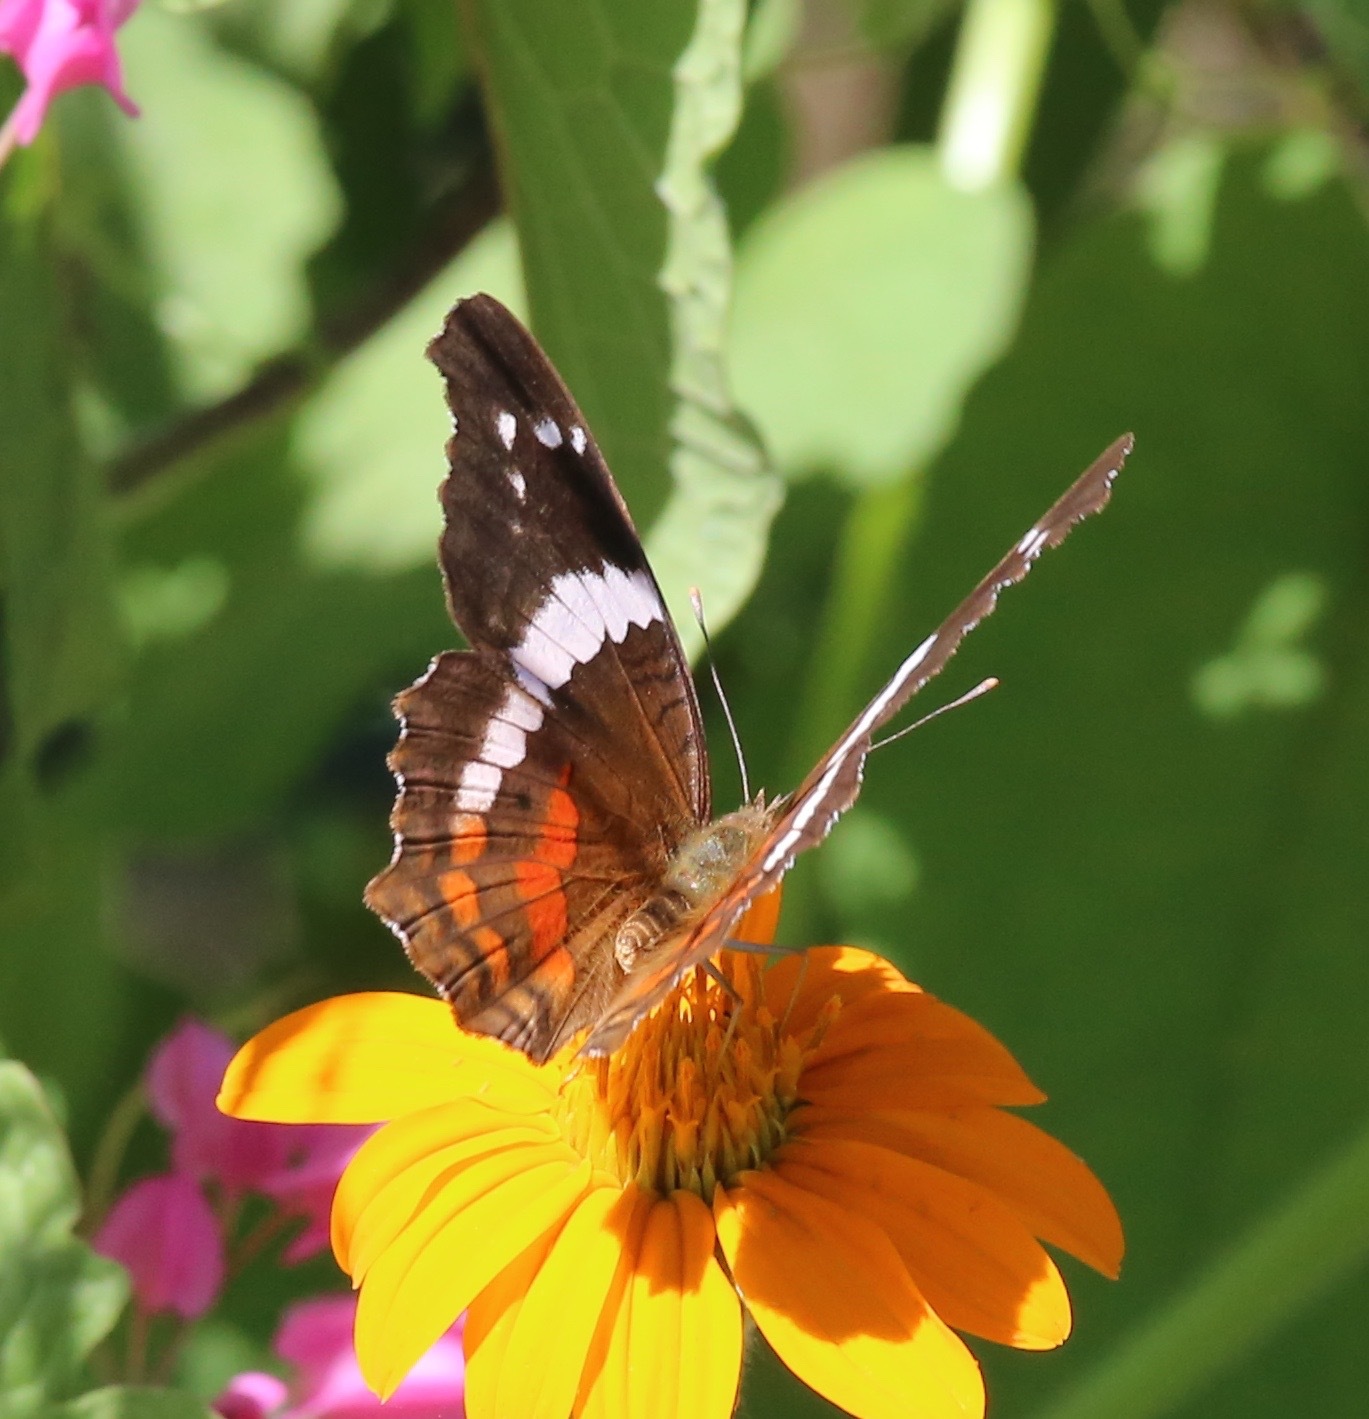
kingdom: Animalia
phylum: Arthropoda
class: Insecta
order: Lepidoptera
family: Nymphalidae
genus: Anartia
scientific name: Anartia fatima
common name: Banded peacock
